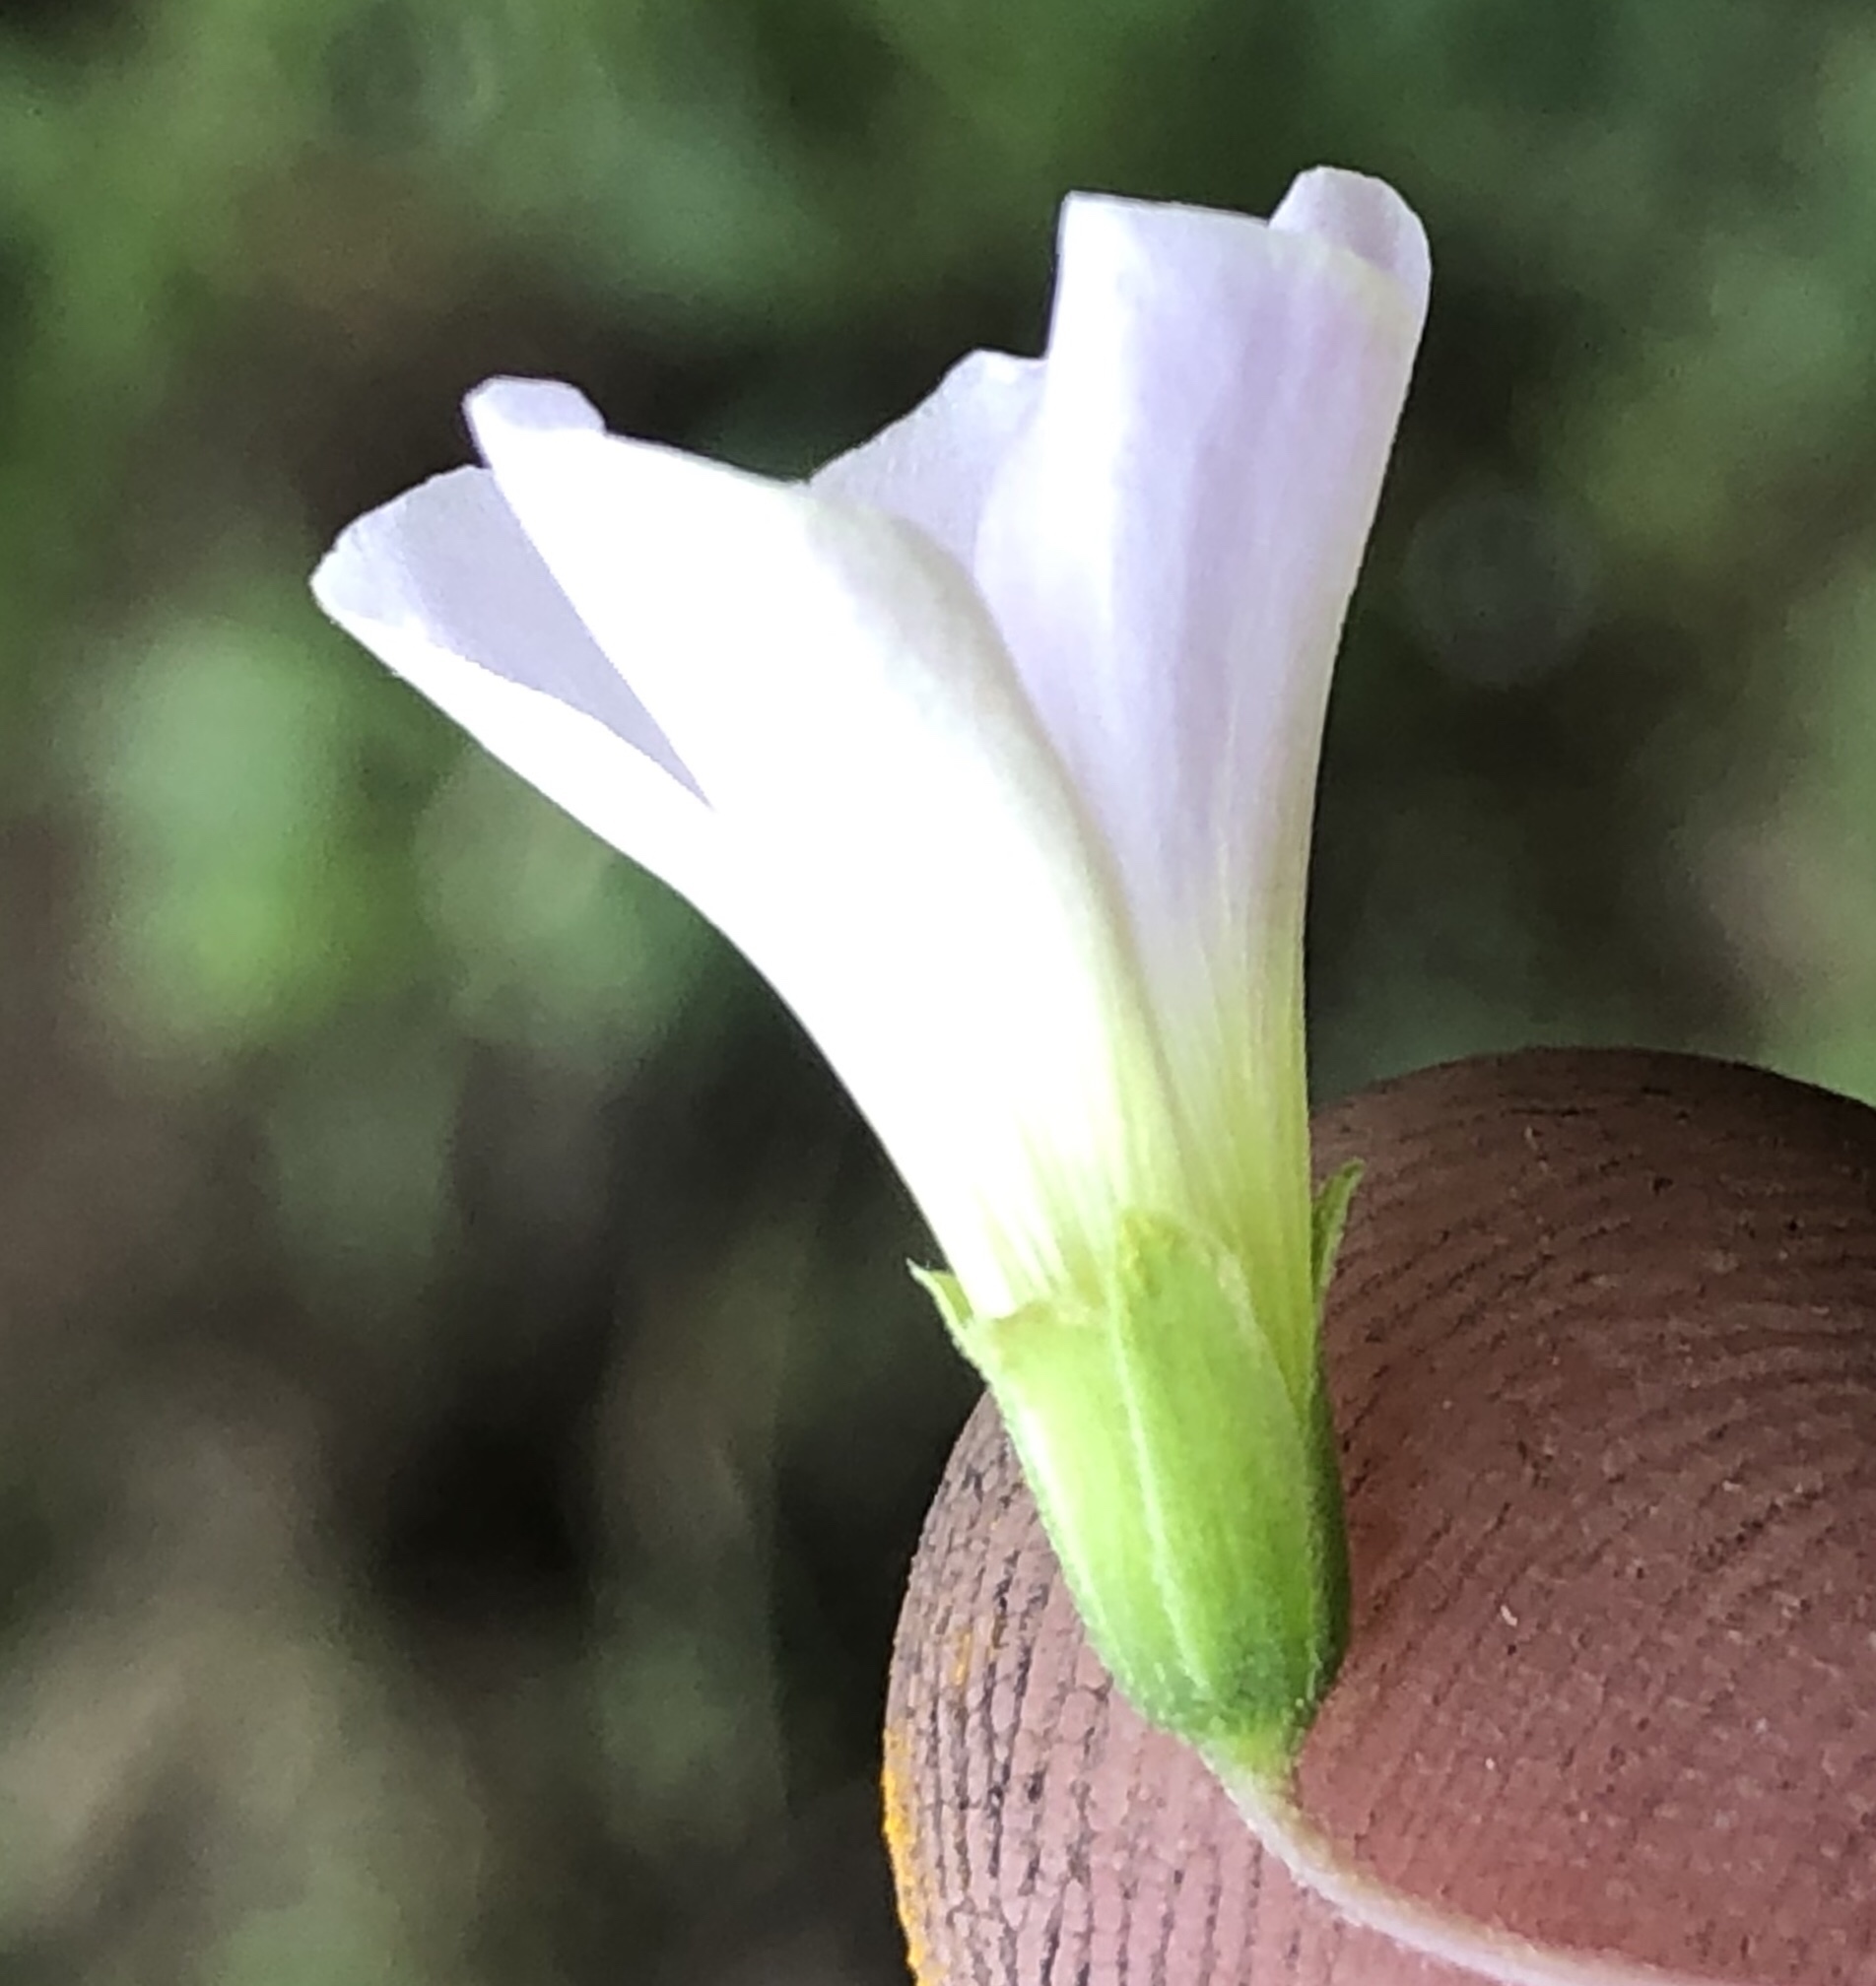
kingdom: Plantae
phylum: Tracheophyta
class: Magnoliopsida
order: Oxalidales
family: Oxalidaceae
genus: Oxalis
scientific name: Oxalis incarnata
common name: Pale pink-sorrel
